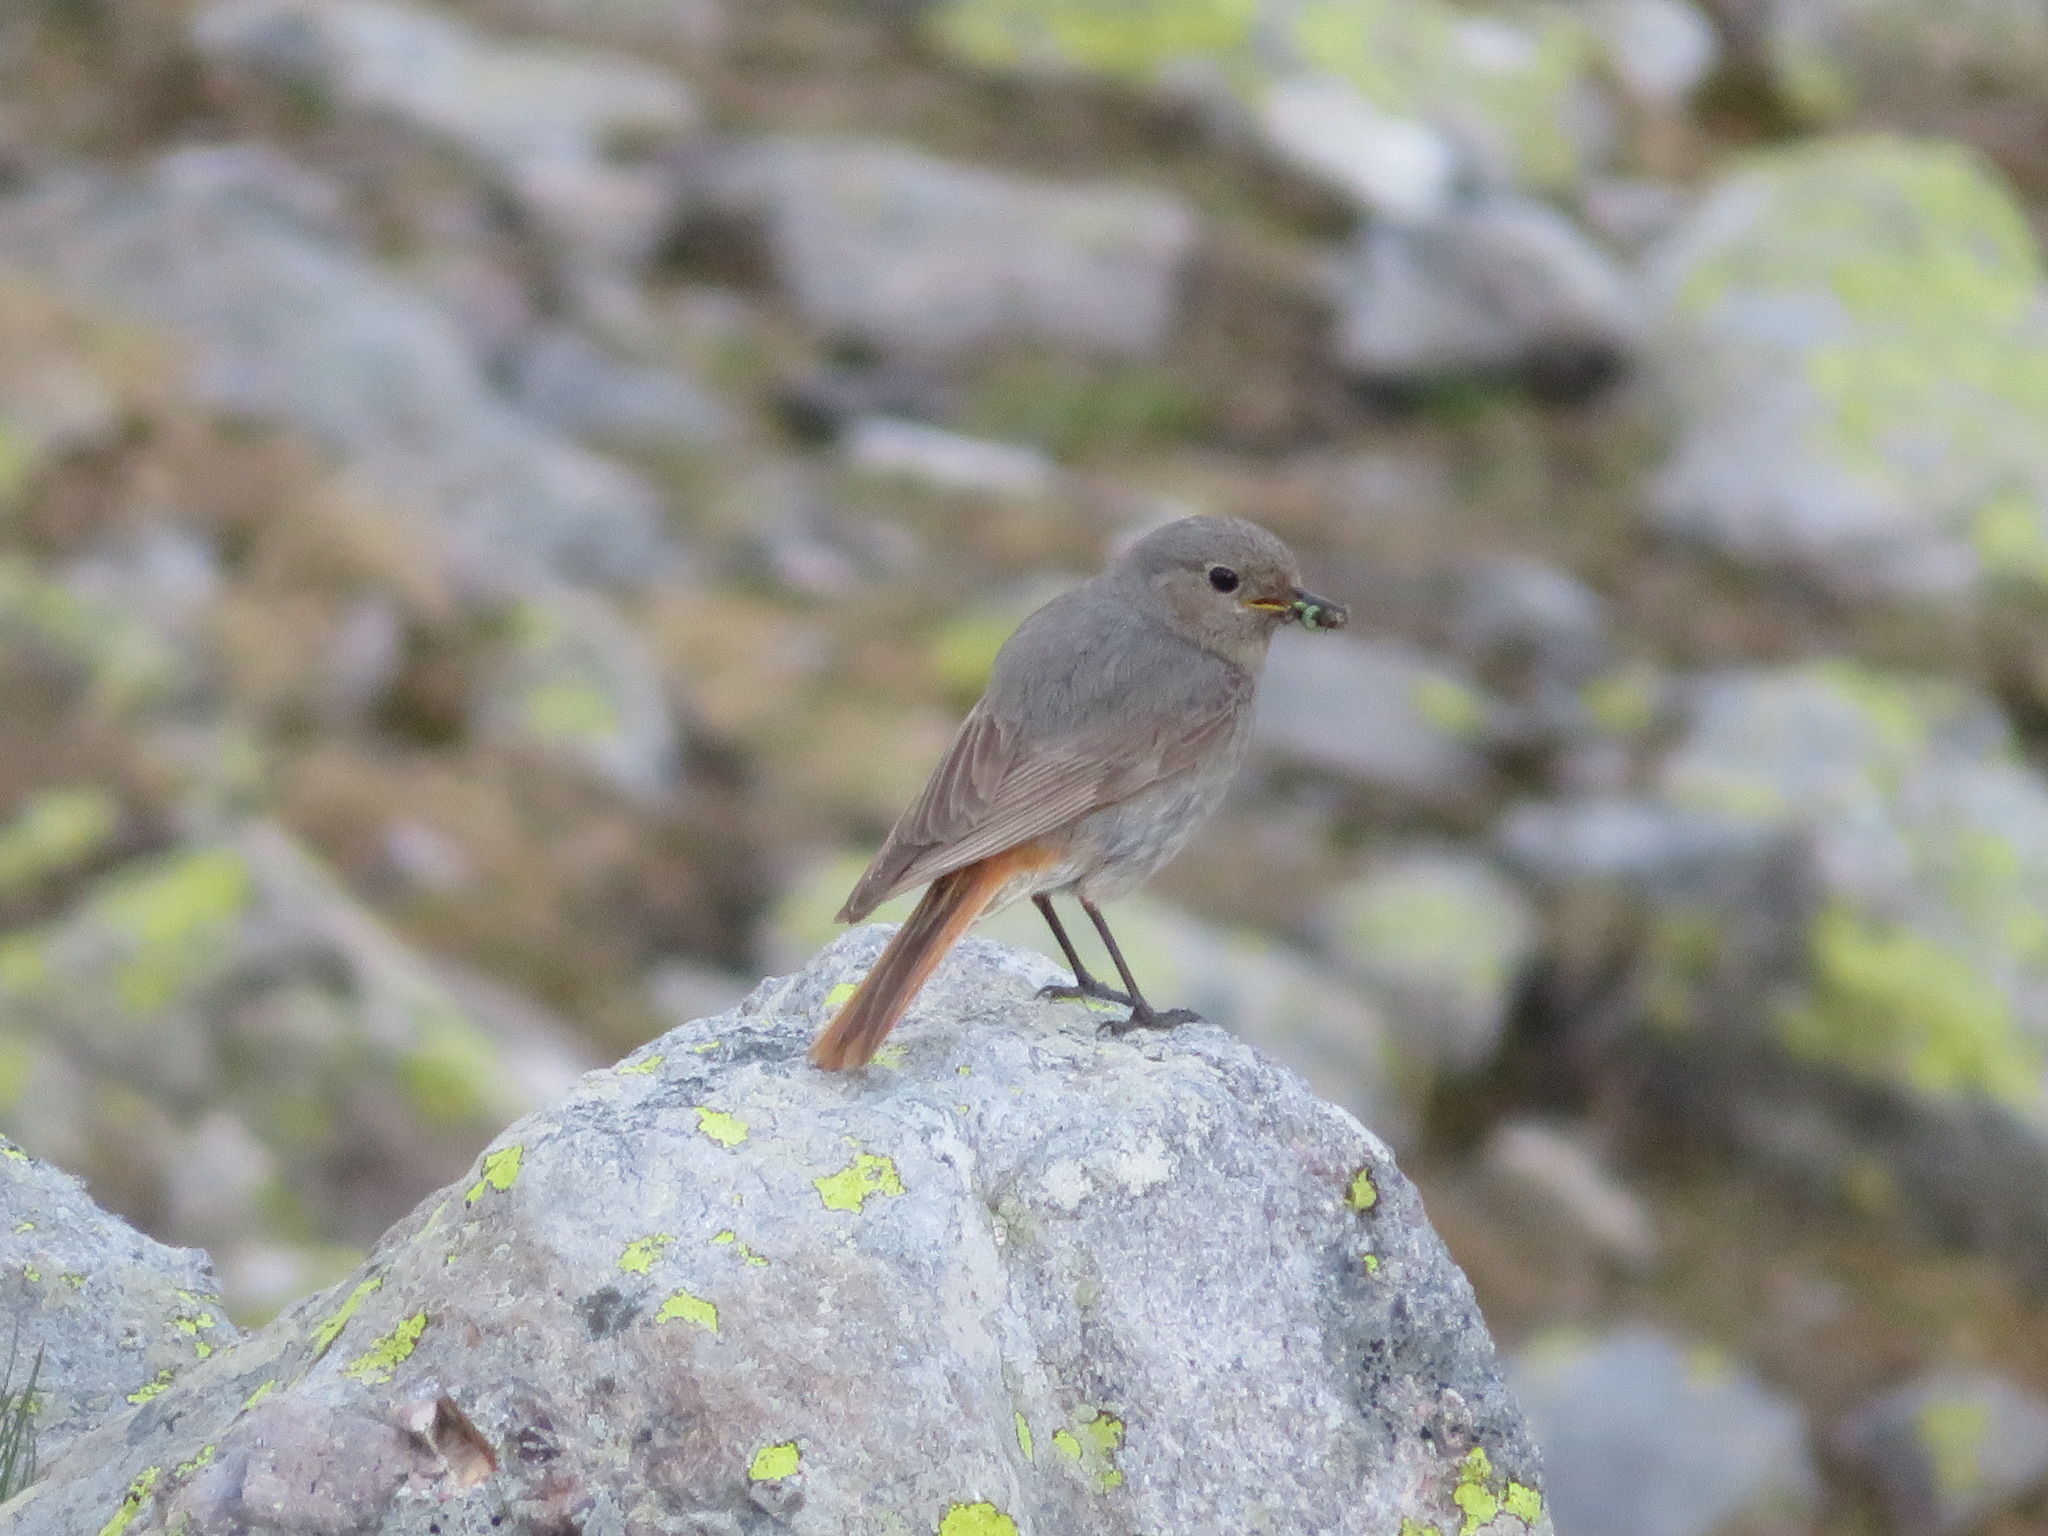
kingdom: Animalia
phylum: Chordata
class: Aves
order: Passeriformes
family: Muscicapidae
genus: Phoenicurus
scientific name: Phoenicurus ochruros
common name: Black redstart
